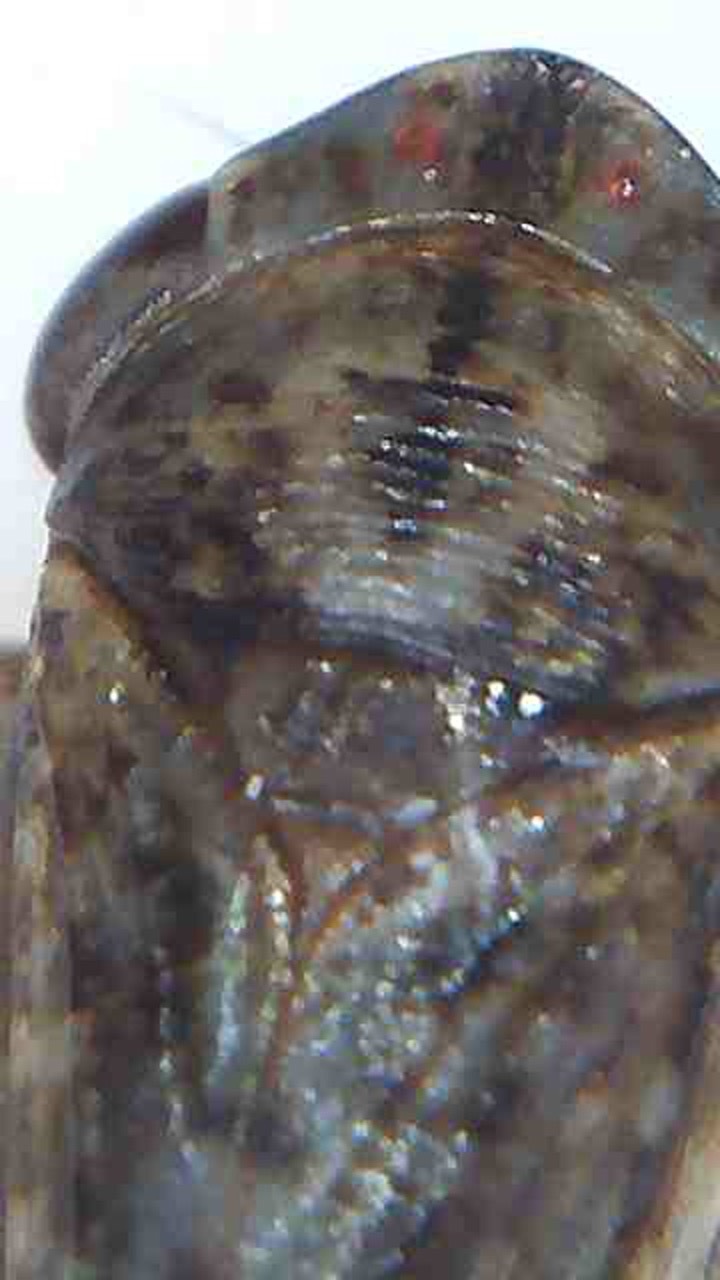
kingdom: Animalia
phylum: Arthropoda
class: Insecta
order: Strepsiptera
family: Halictophagidae
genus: Coriophagus
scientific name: Coriophagus casui
